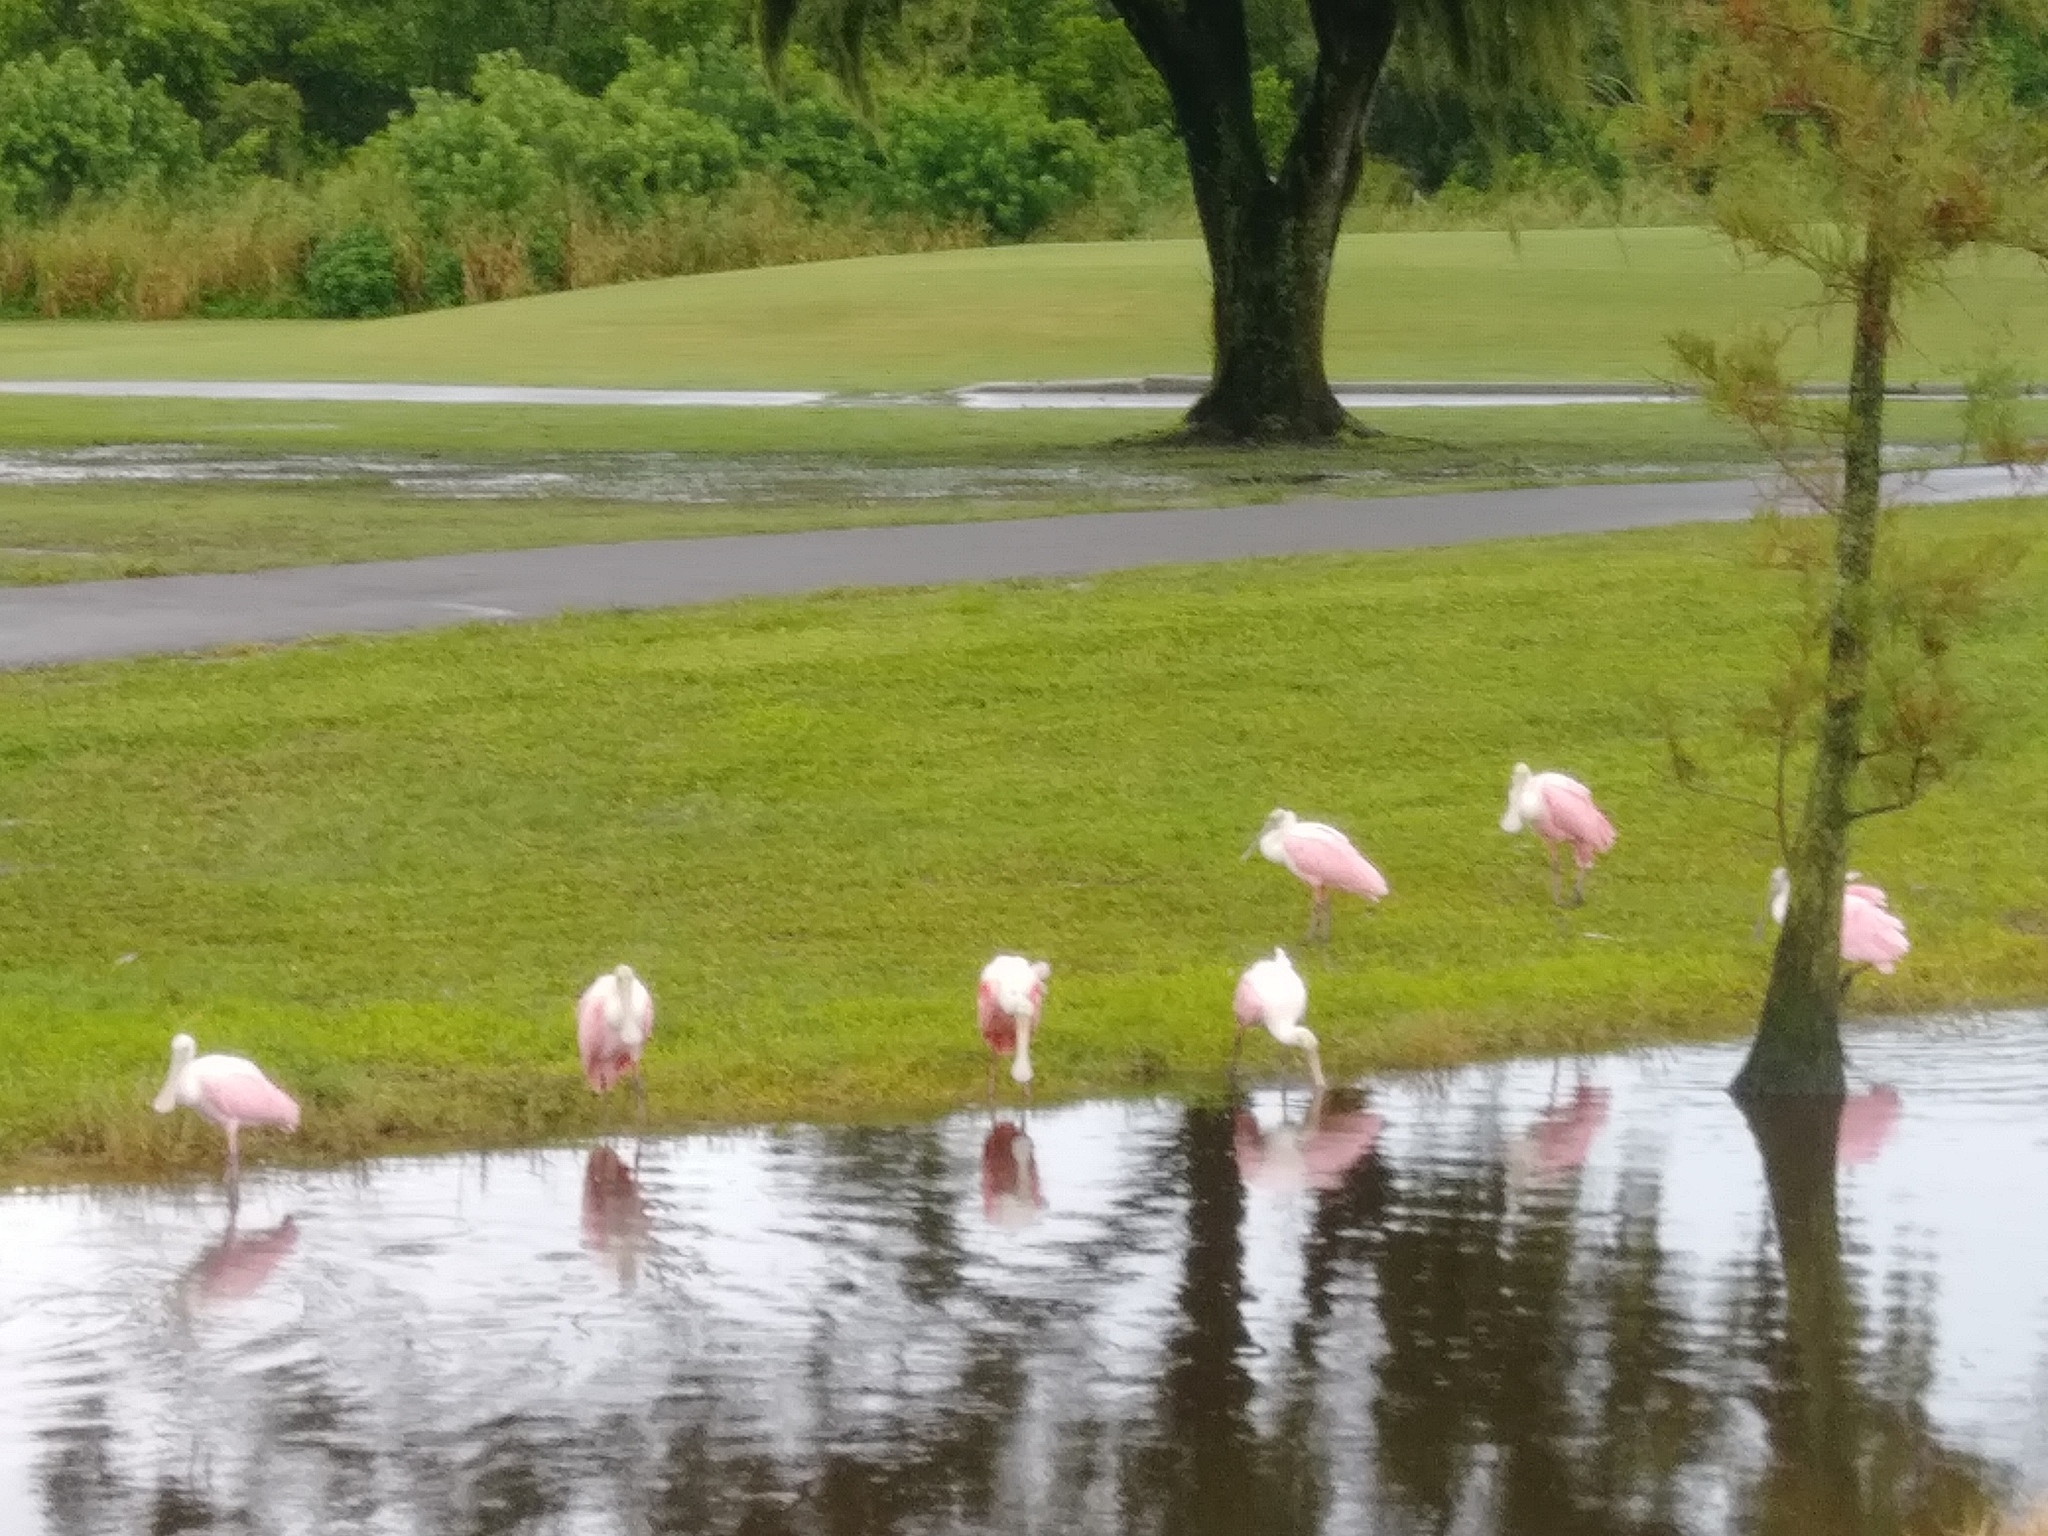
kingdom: Animalia
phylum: Chordata
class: Aves
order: Pelecaniformes
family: Threskiornithidae
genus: Platalea
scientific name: Platalea ajaja
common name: Roseate spoonbill
